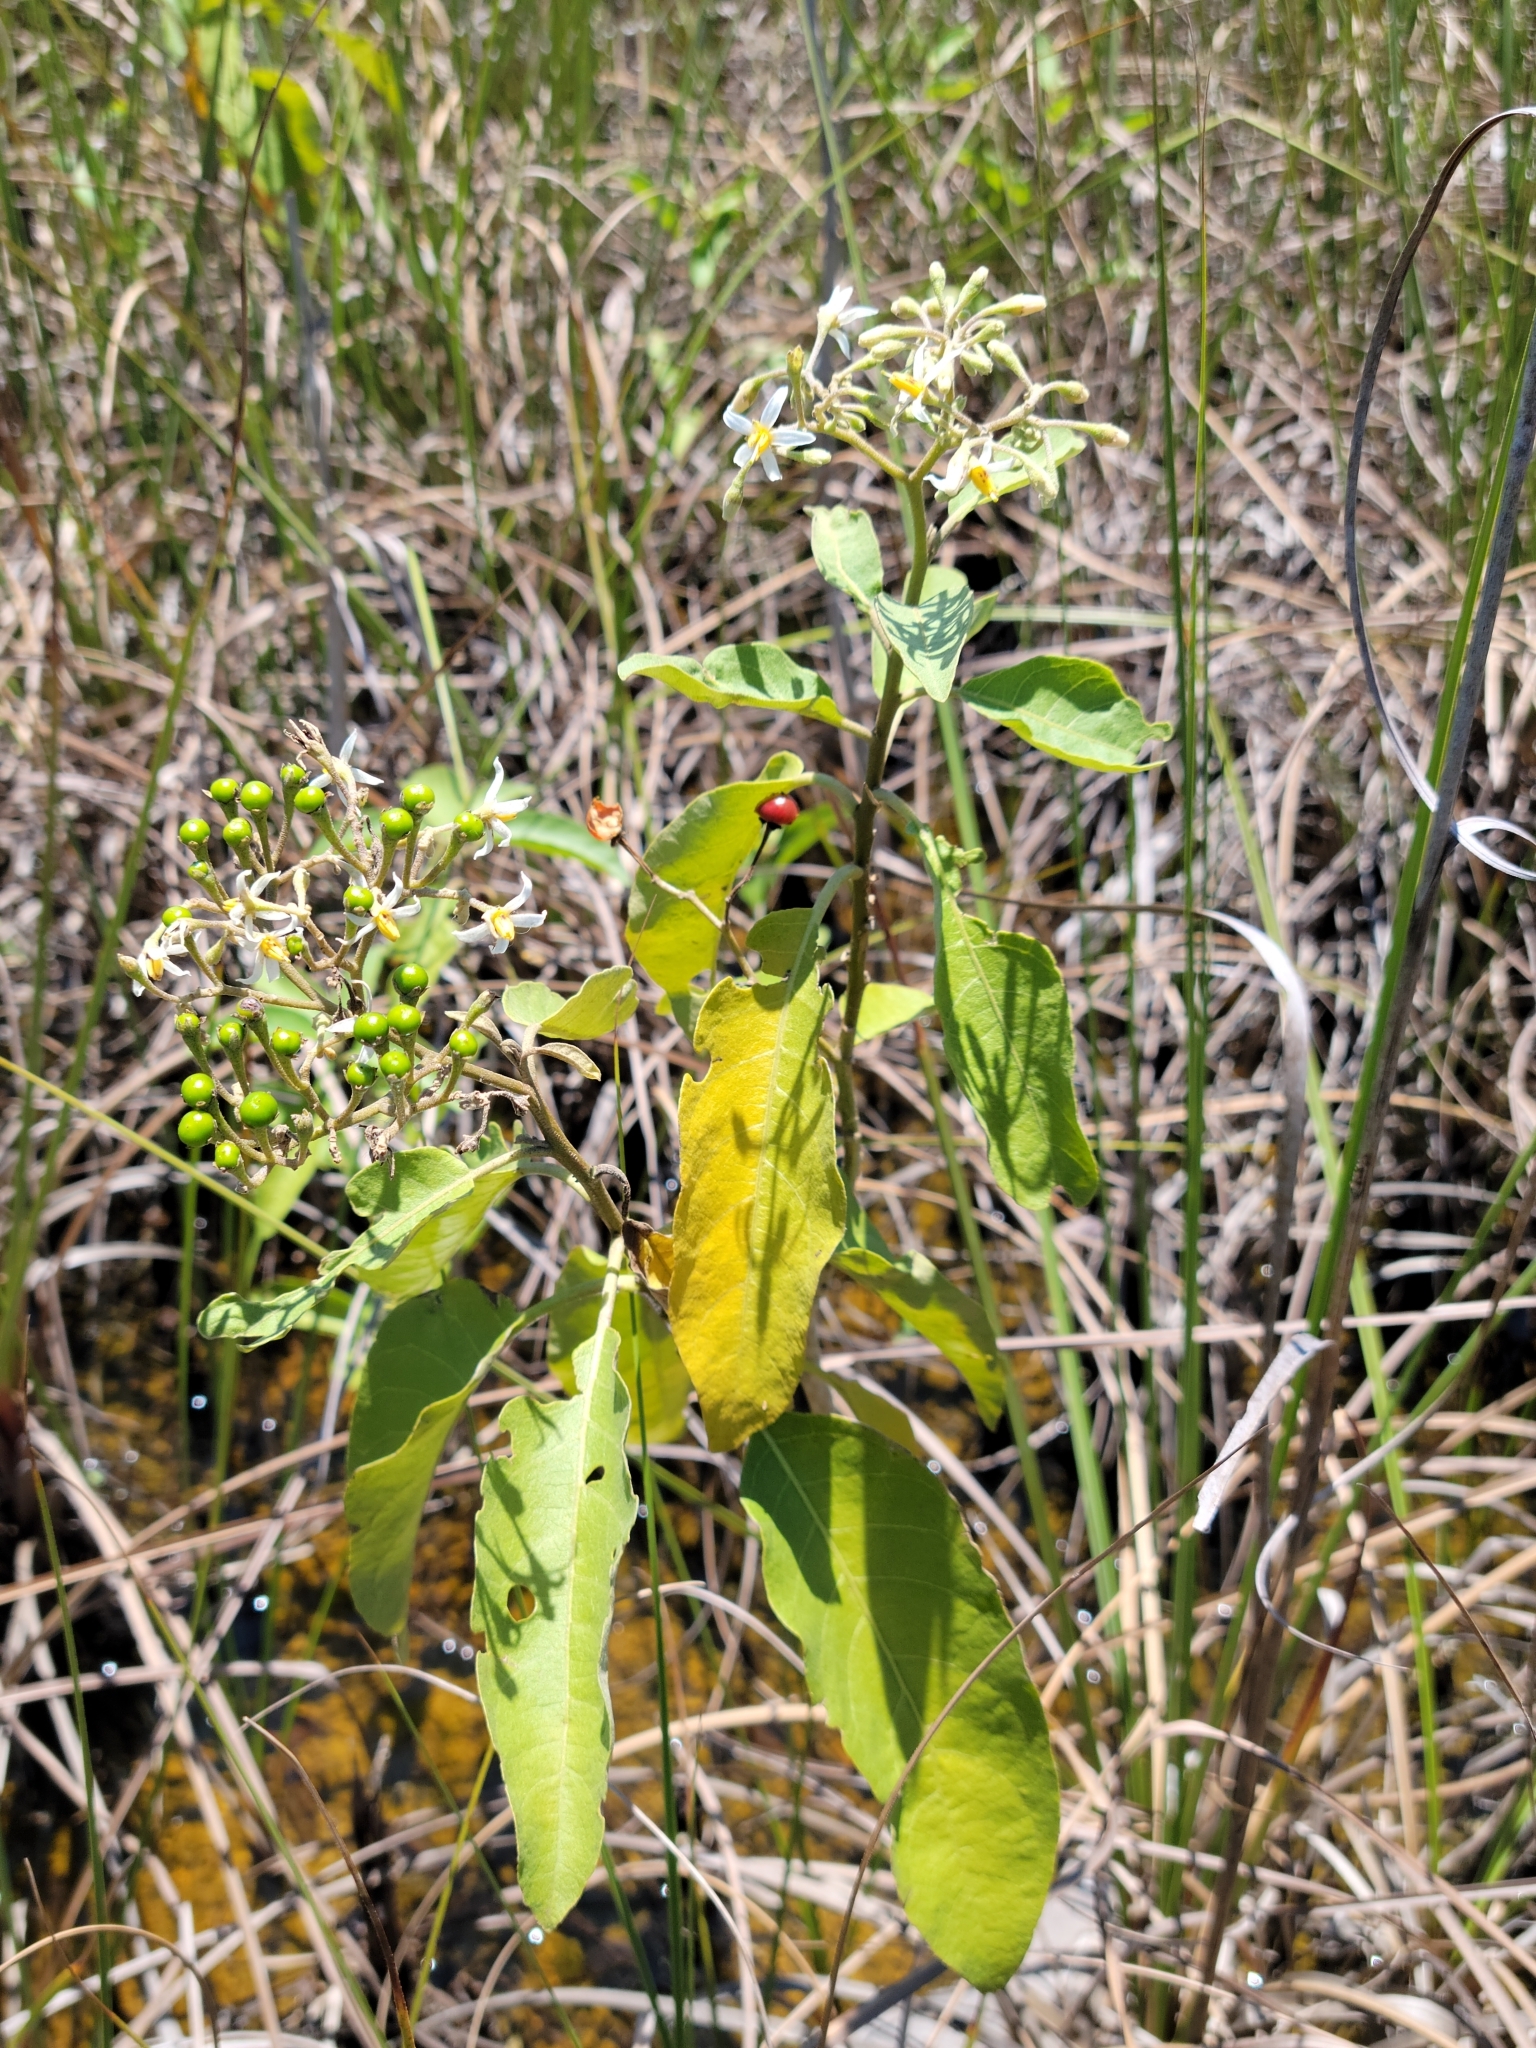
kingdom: Plantae
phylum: Tracheophyta
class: Magnoliopsida
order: Solanales
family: Solanaceae
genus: Solanum
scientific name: Solanum donianum
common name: Mullein nightshade
